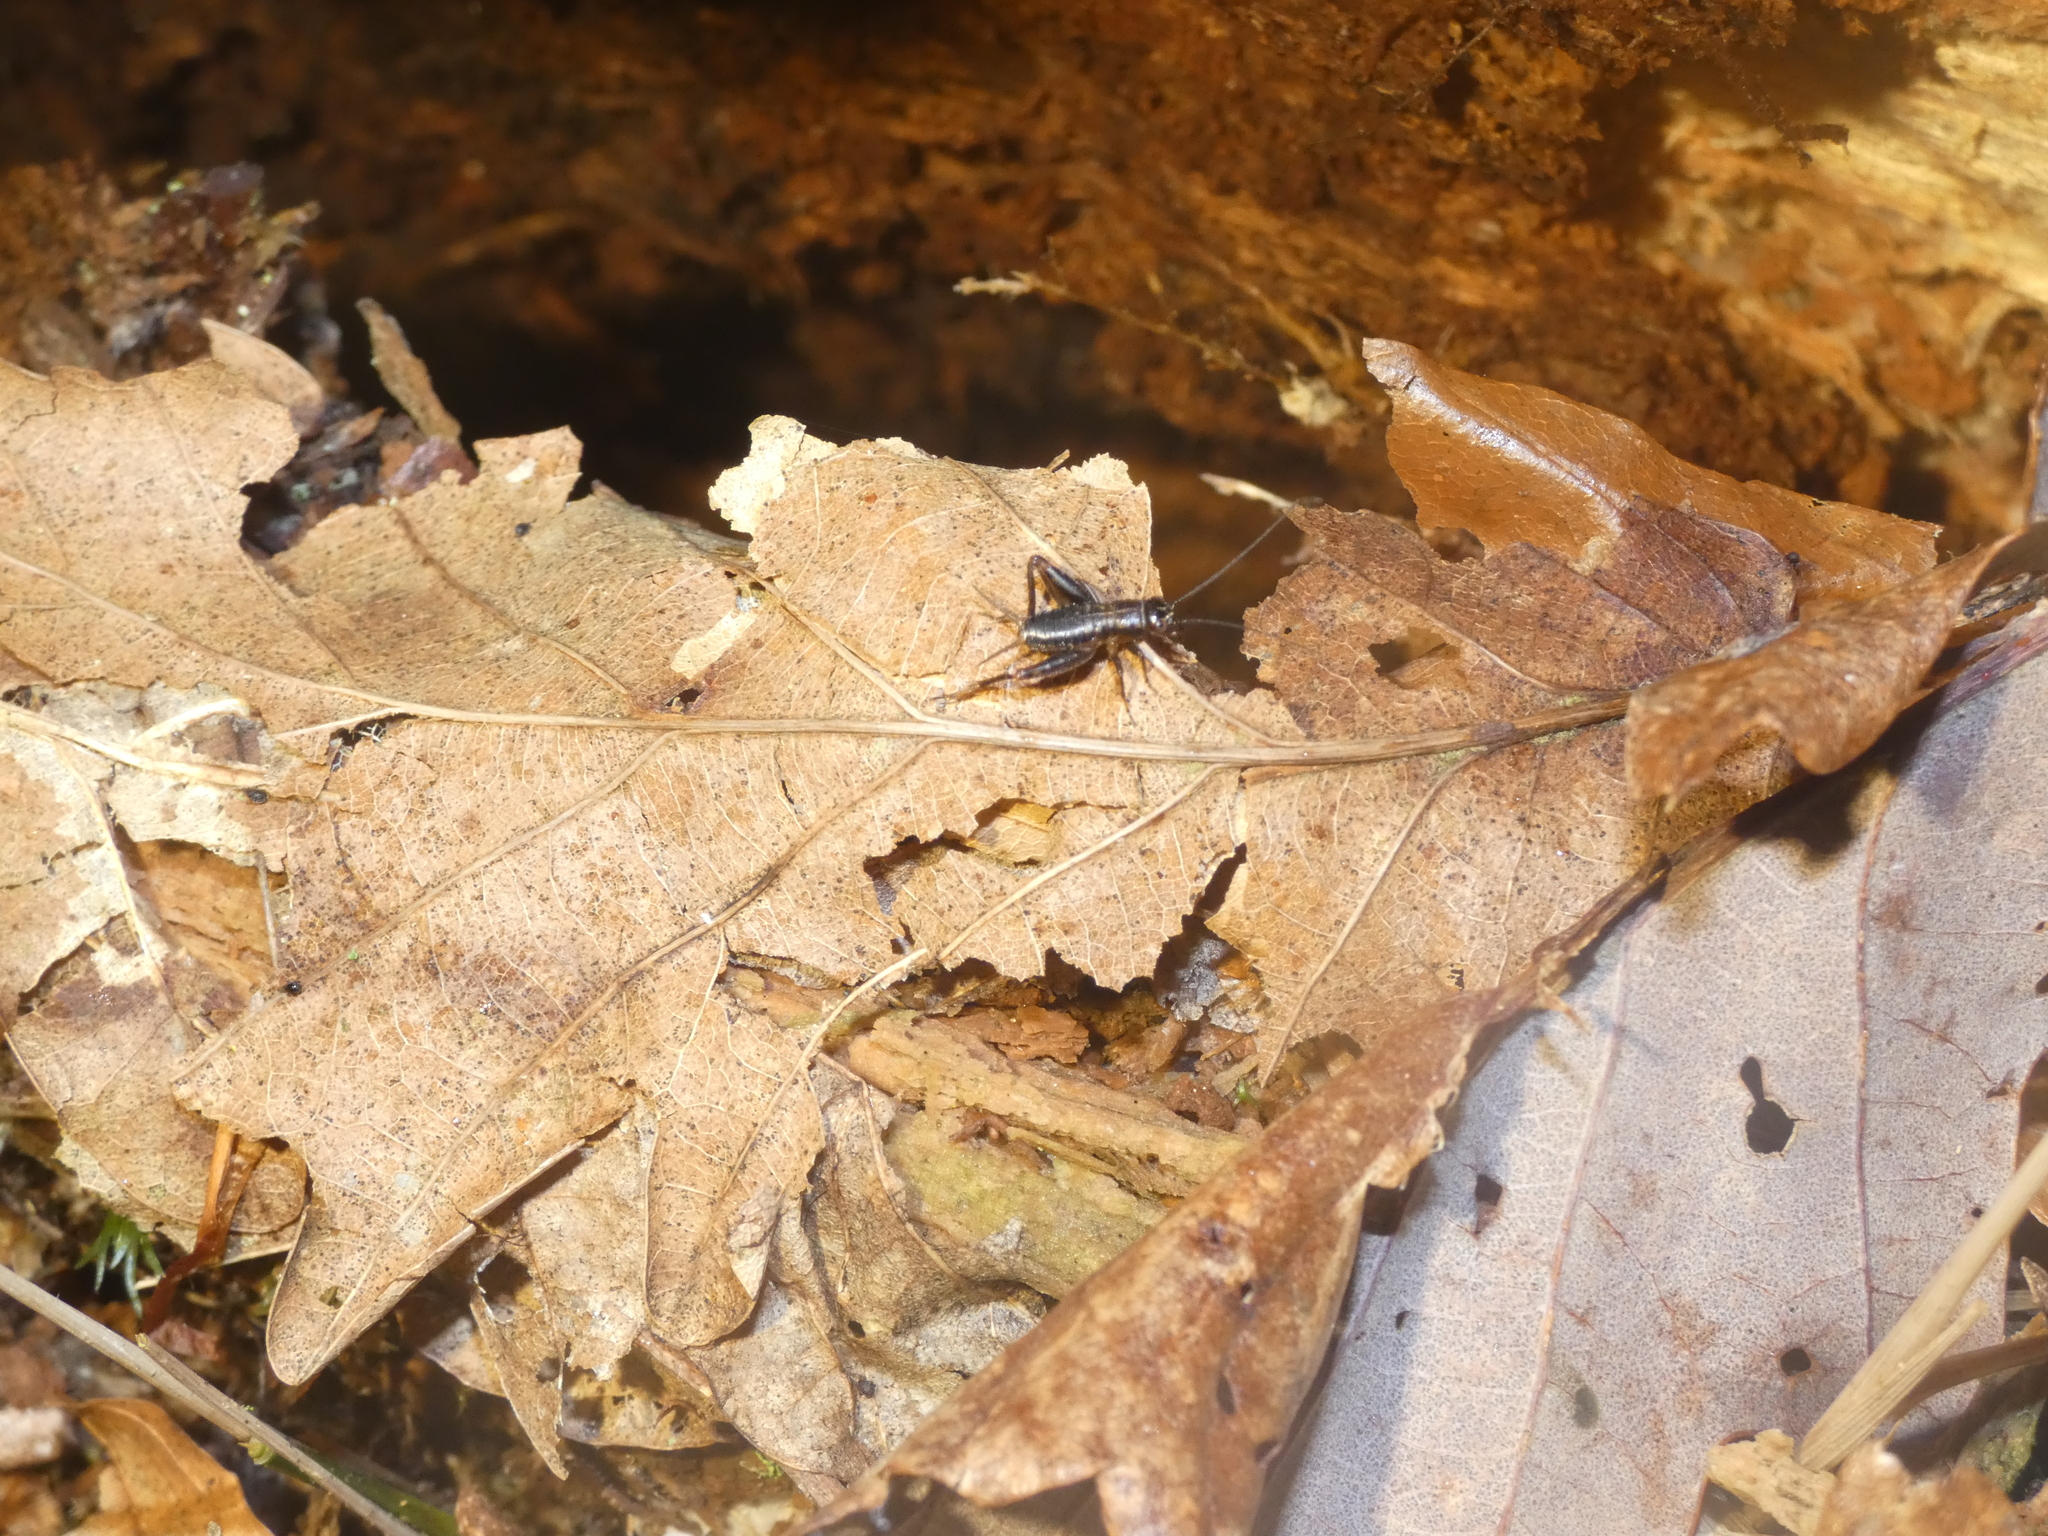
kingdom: Animalia
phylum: Arthropoda
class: Insecta
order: Orthoptera
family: Trigonidiidae
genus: Nemobius
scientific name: Nemobius sylvestris
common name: Wood-cricket
